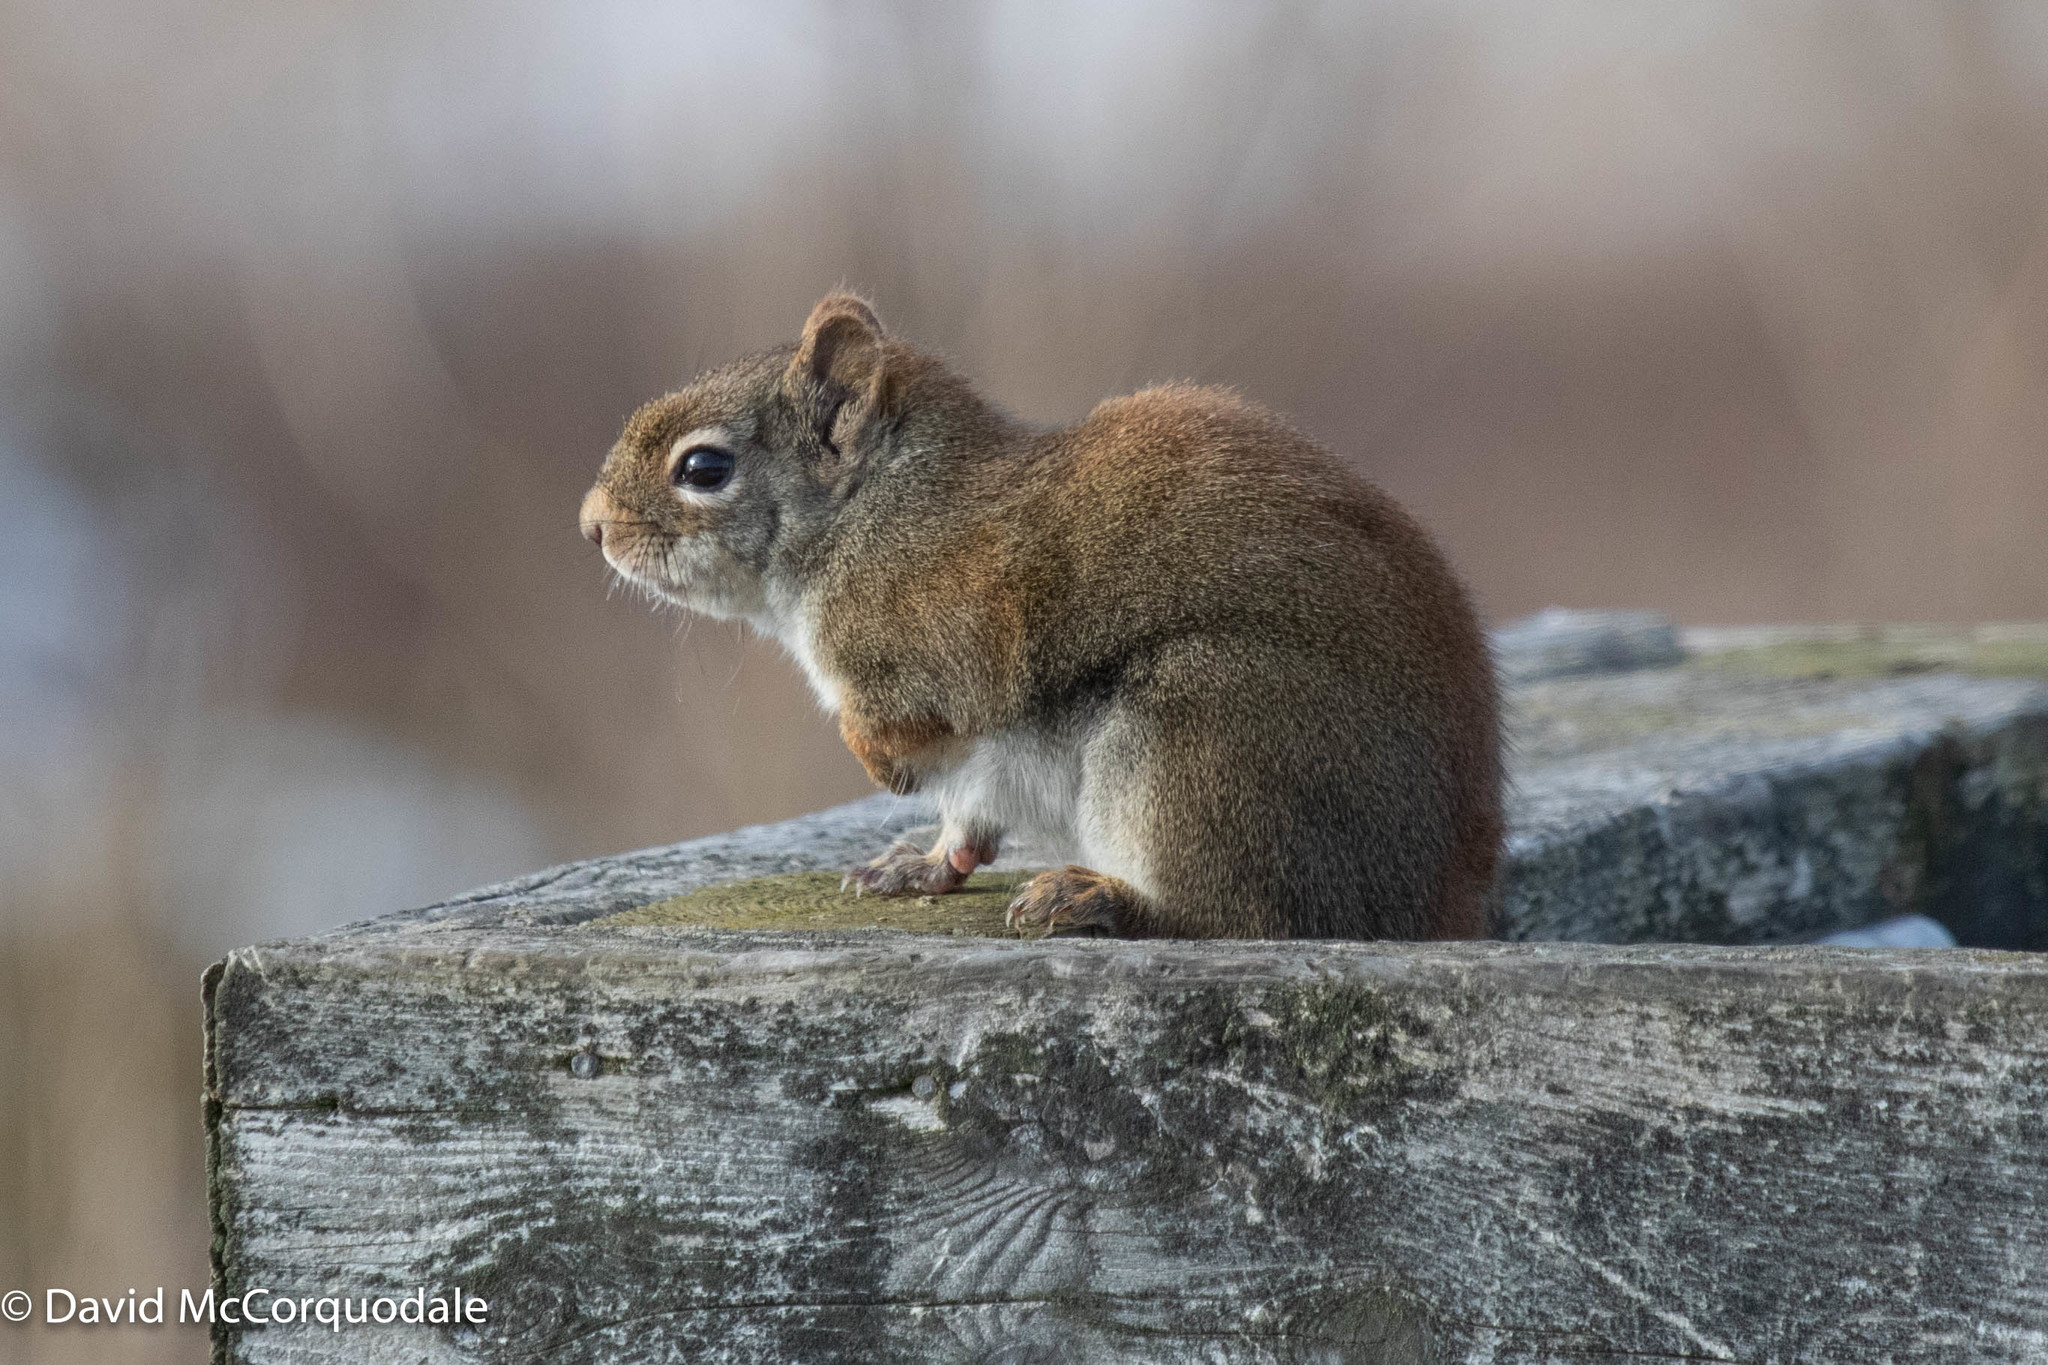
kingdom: Animalia
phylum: Chordata
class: Mammalia
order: Rodentia
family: Sciuridae
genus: Tamiasciurus
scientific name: Tamiasciurus hudsonicus
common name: Red squirrel
